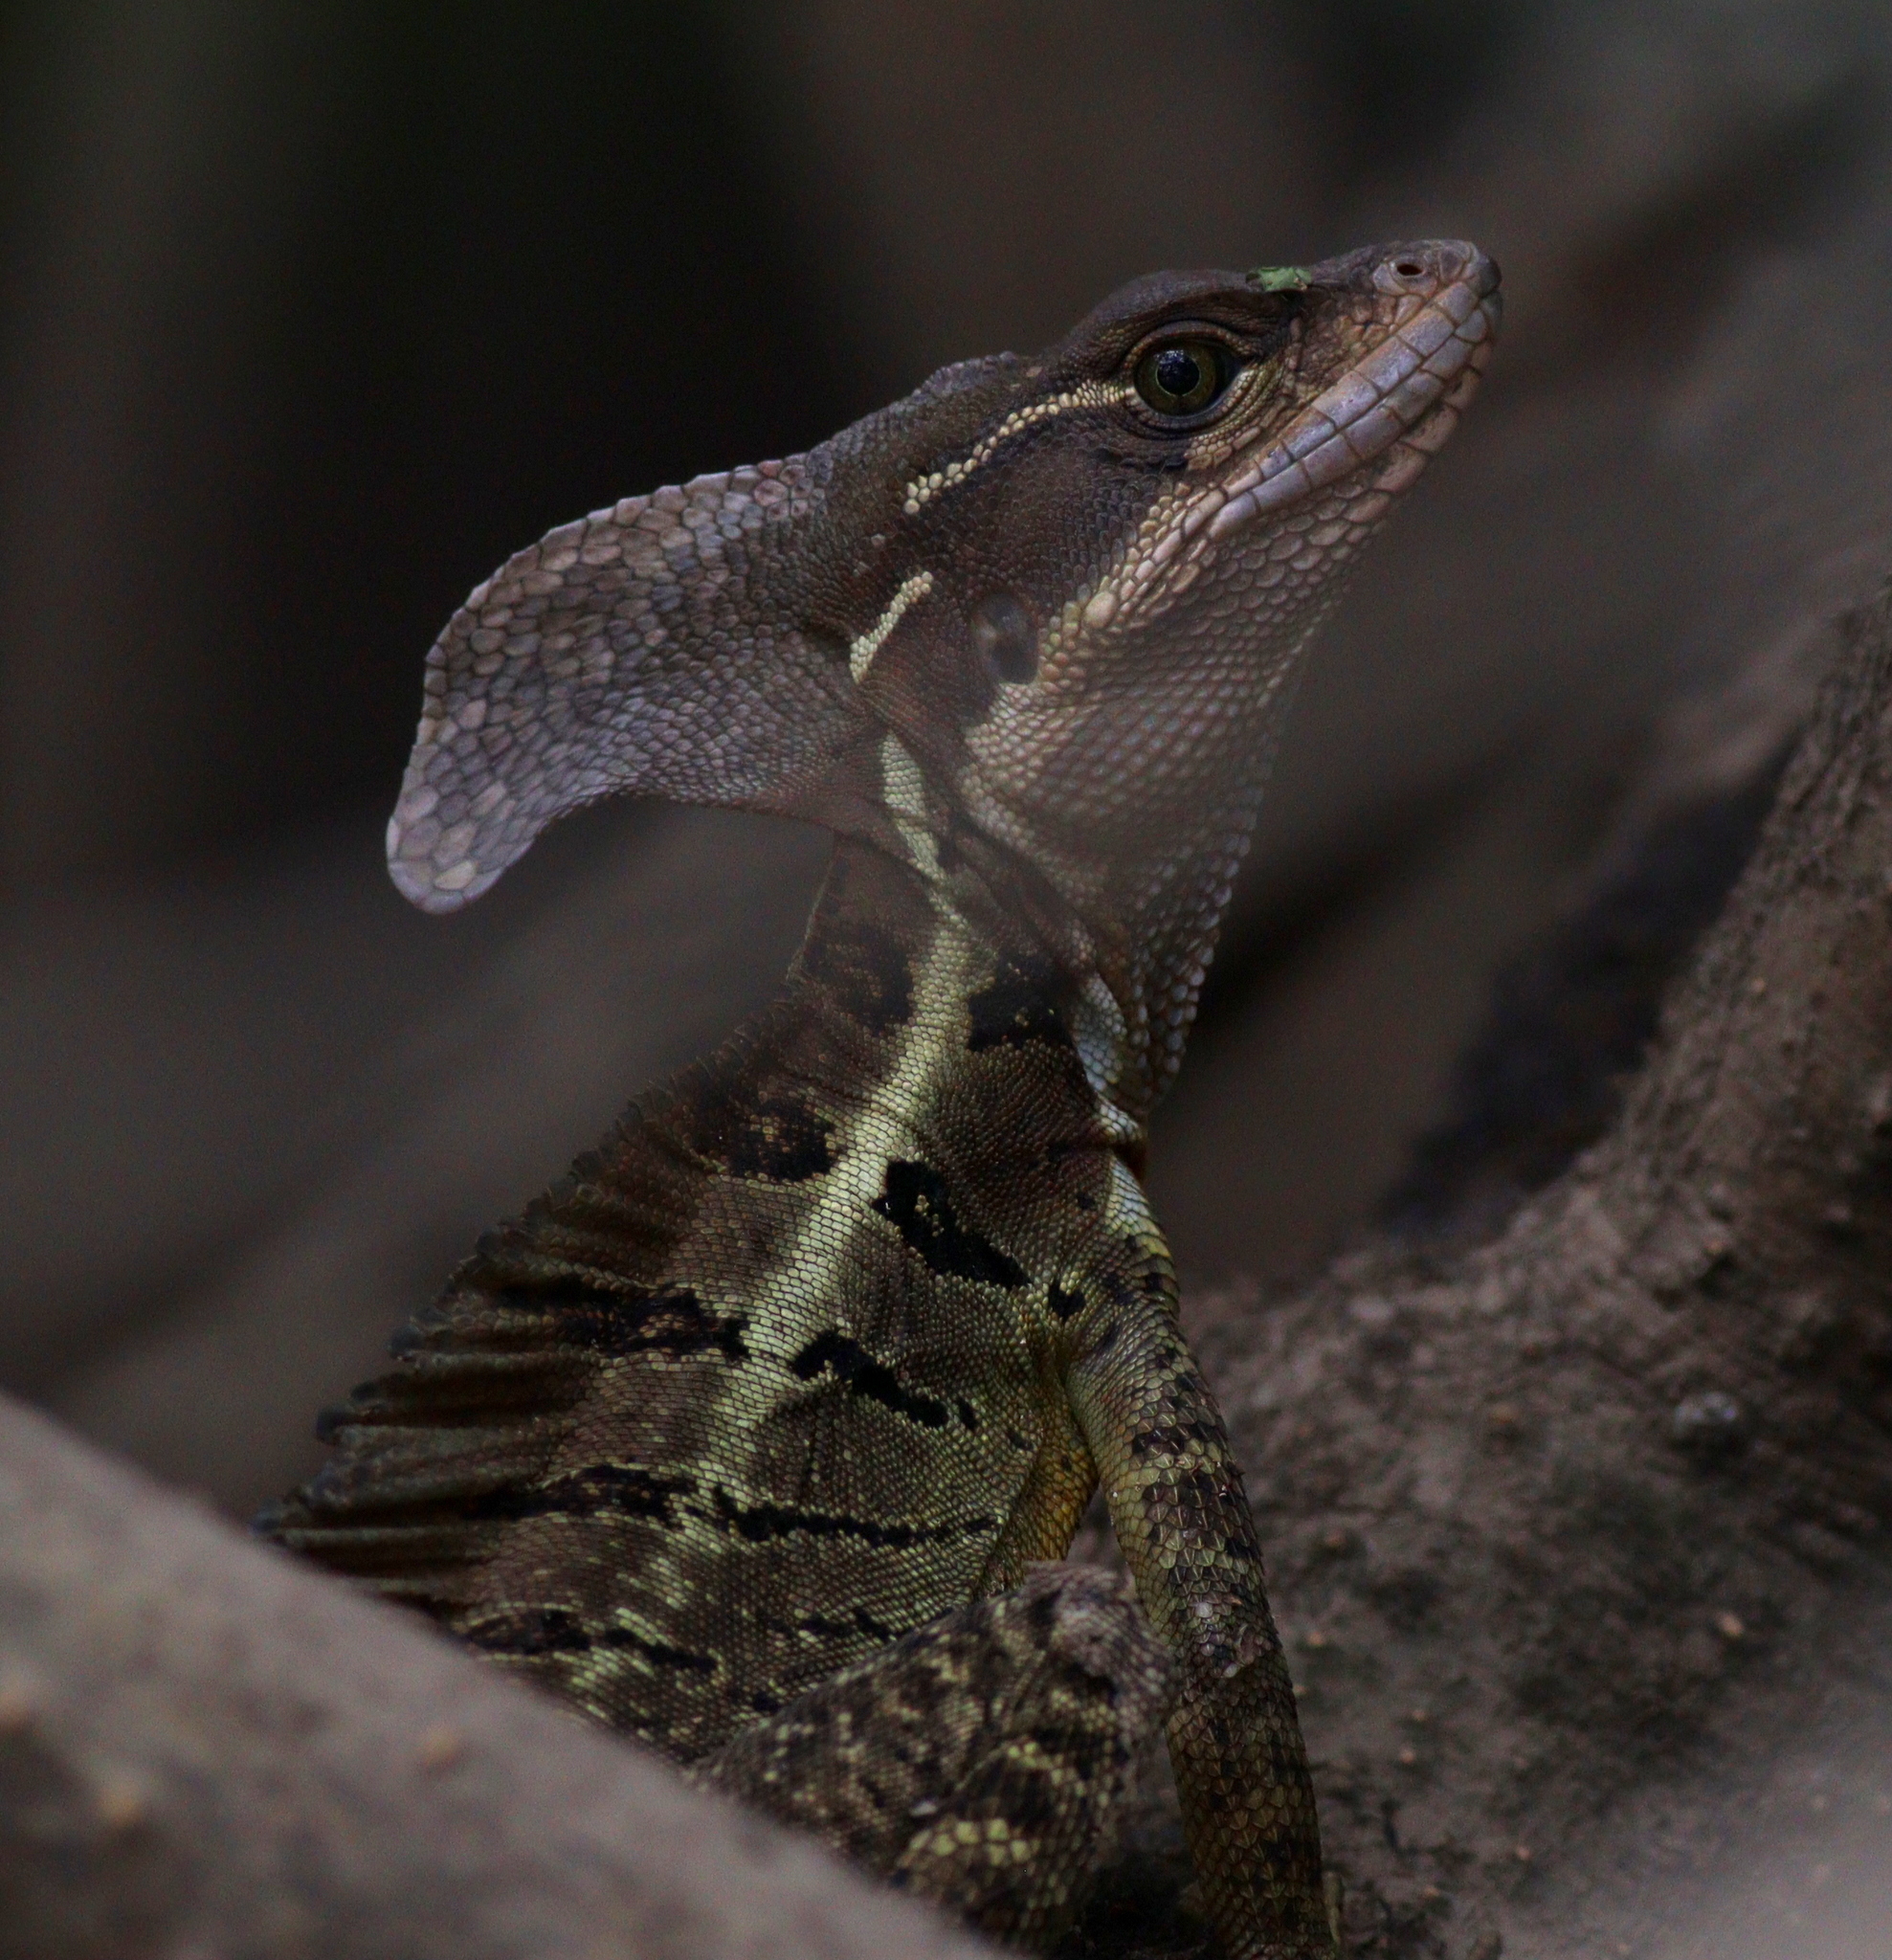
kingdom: Animalia
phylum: Chordata
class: Squamata
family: Corytophanidae
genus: Basiliscus
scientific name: Basiliscus basiliscus
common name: Common basilisk
